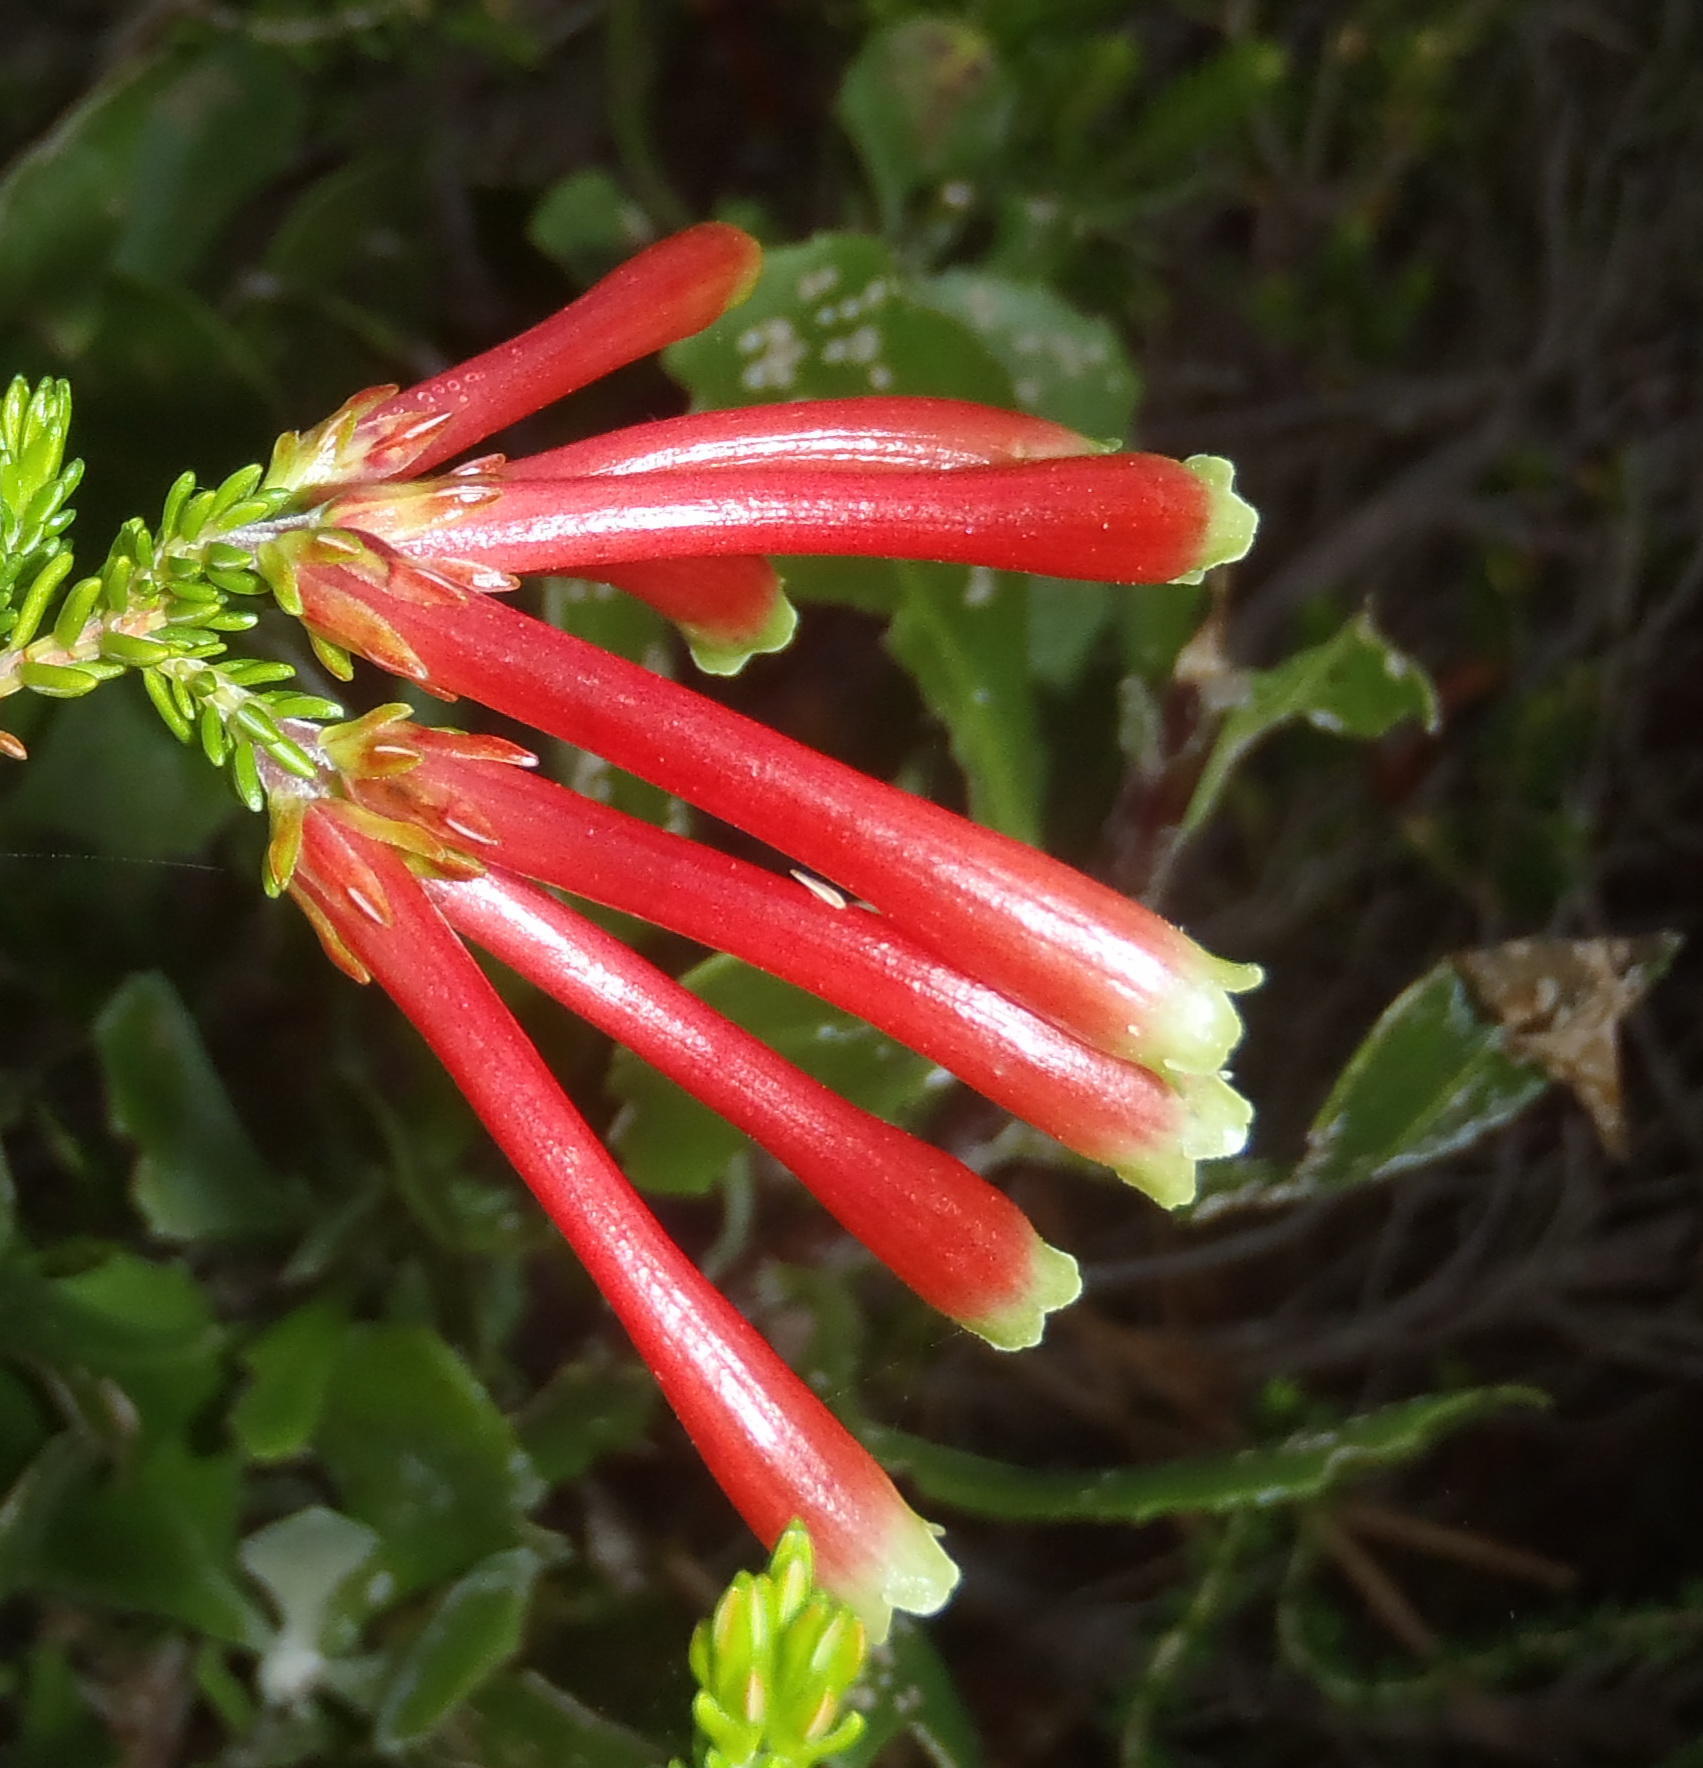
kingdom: Plantae
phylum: Tracheophyta
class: Magnoliopsida
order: Ericales
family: Ericaceae
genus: Erica
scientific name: Erica discolor
